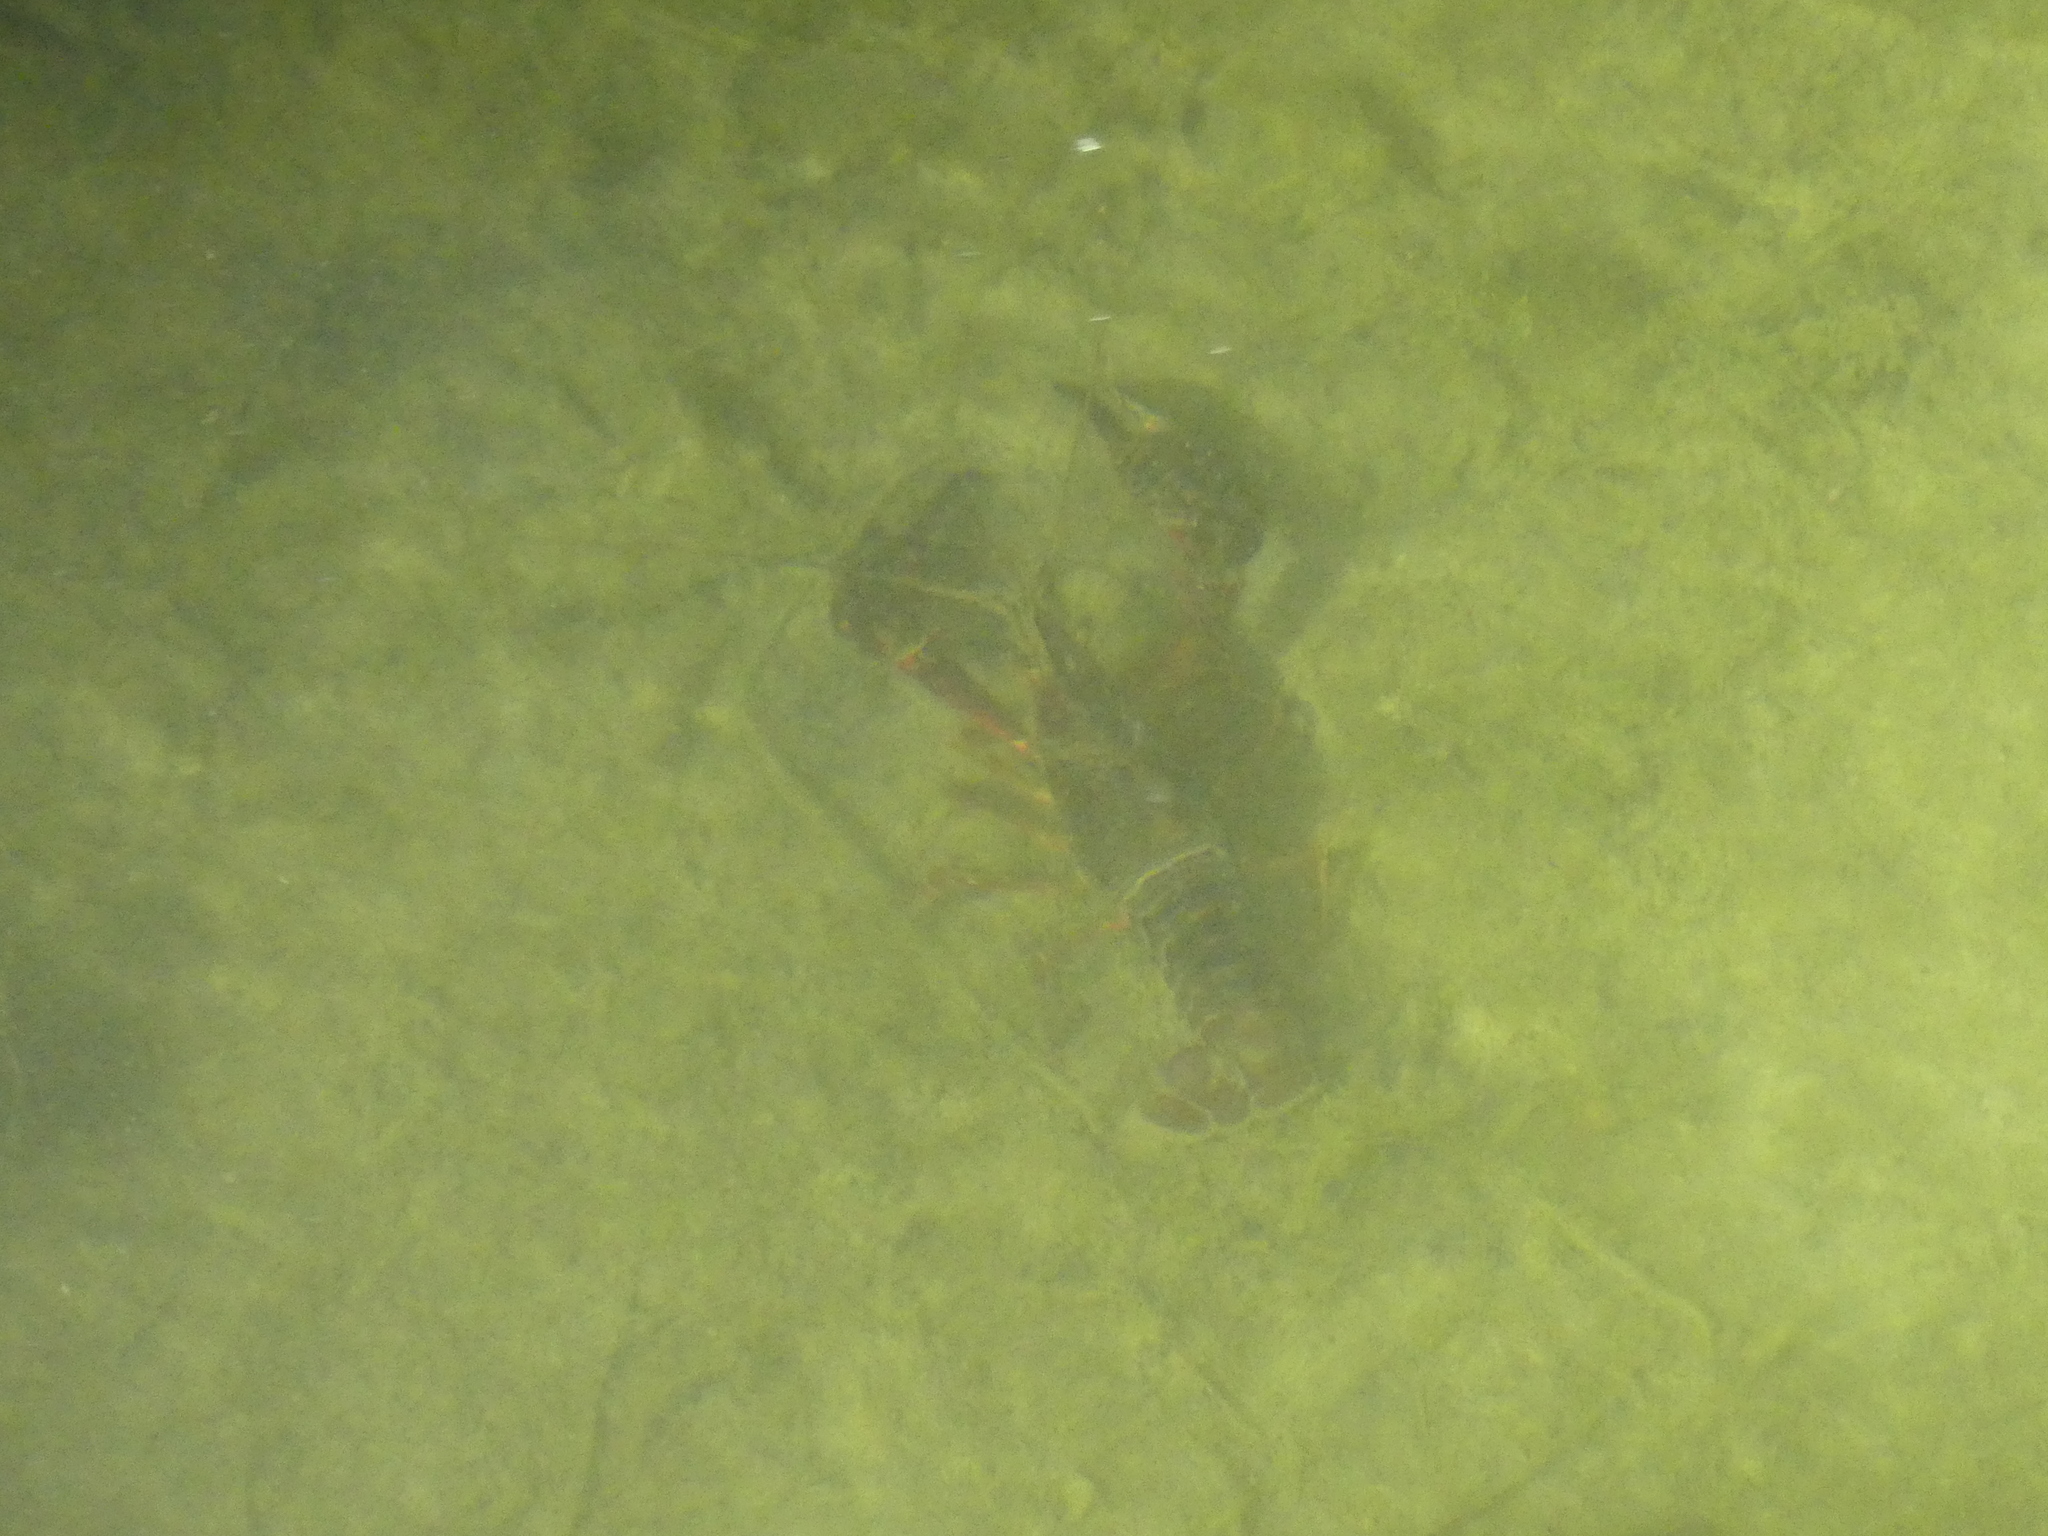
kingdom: Animalia
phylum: Arthropoda
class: Malacostraca
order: Decapoda
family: Cambaridae
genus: Procambarus
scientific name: Procambarus clarkii
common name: Red swamp crayfish
